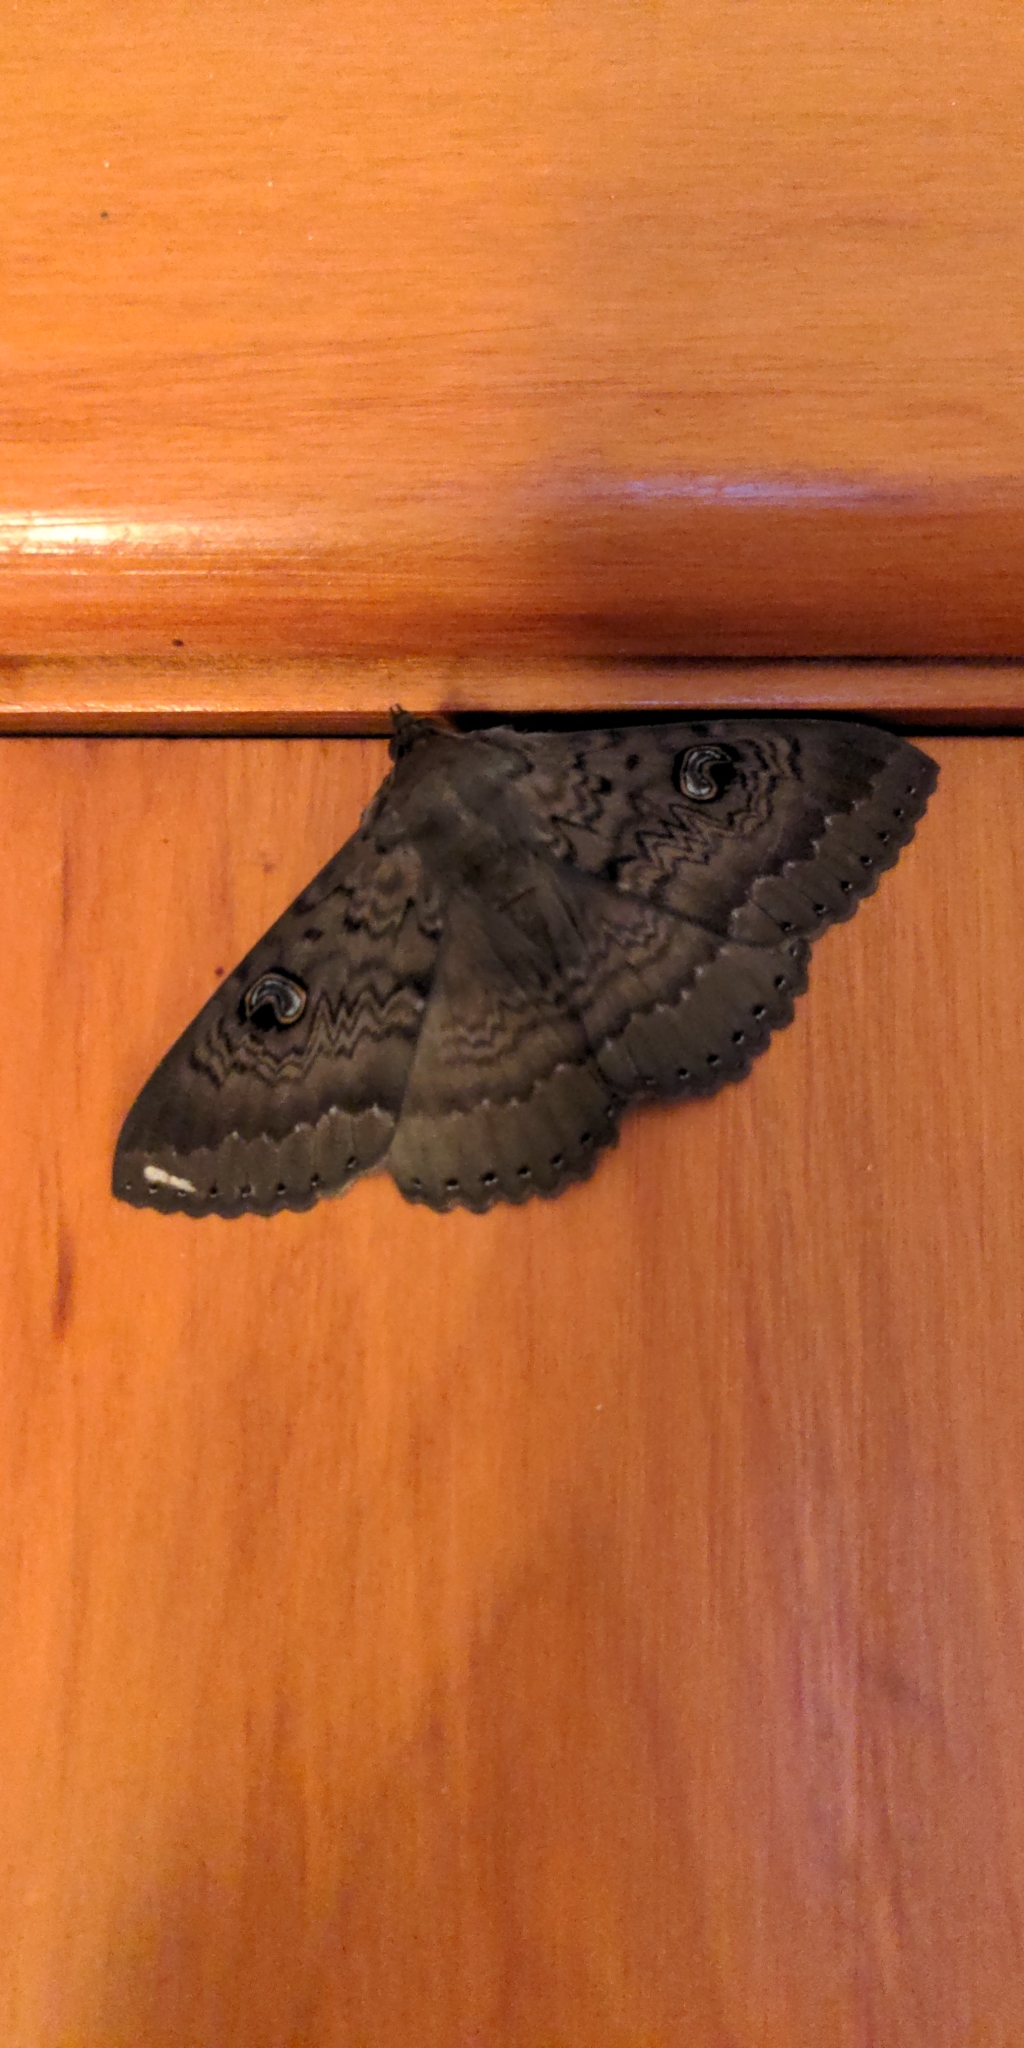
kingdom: Animalia
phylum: Arthropoda
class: Insecta
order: Lepidoptera
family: Erebidae
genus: Dasypodia
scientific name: Dasypodia cymatodes
